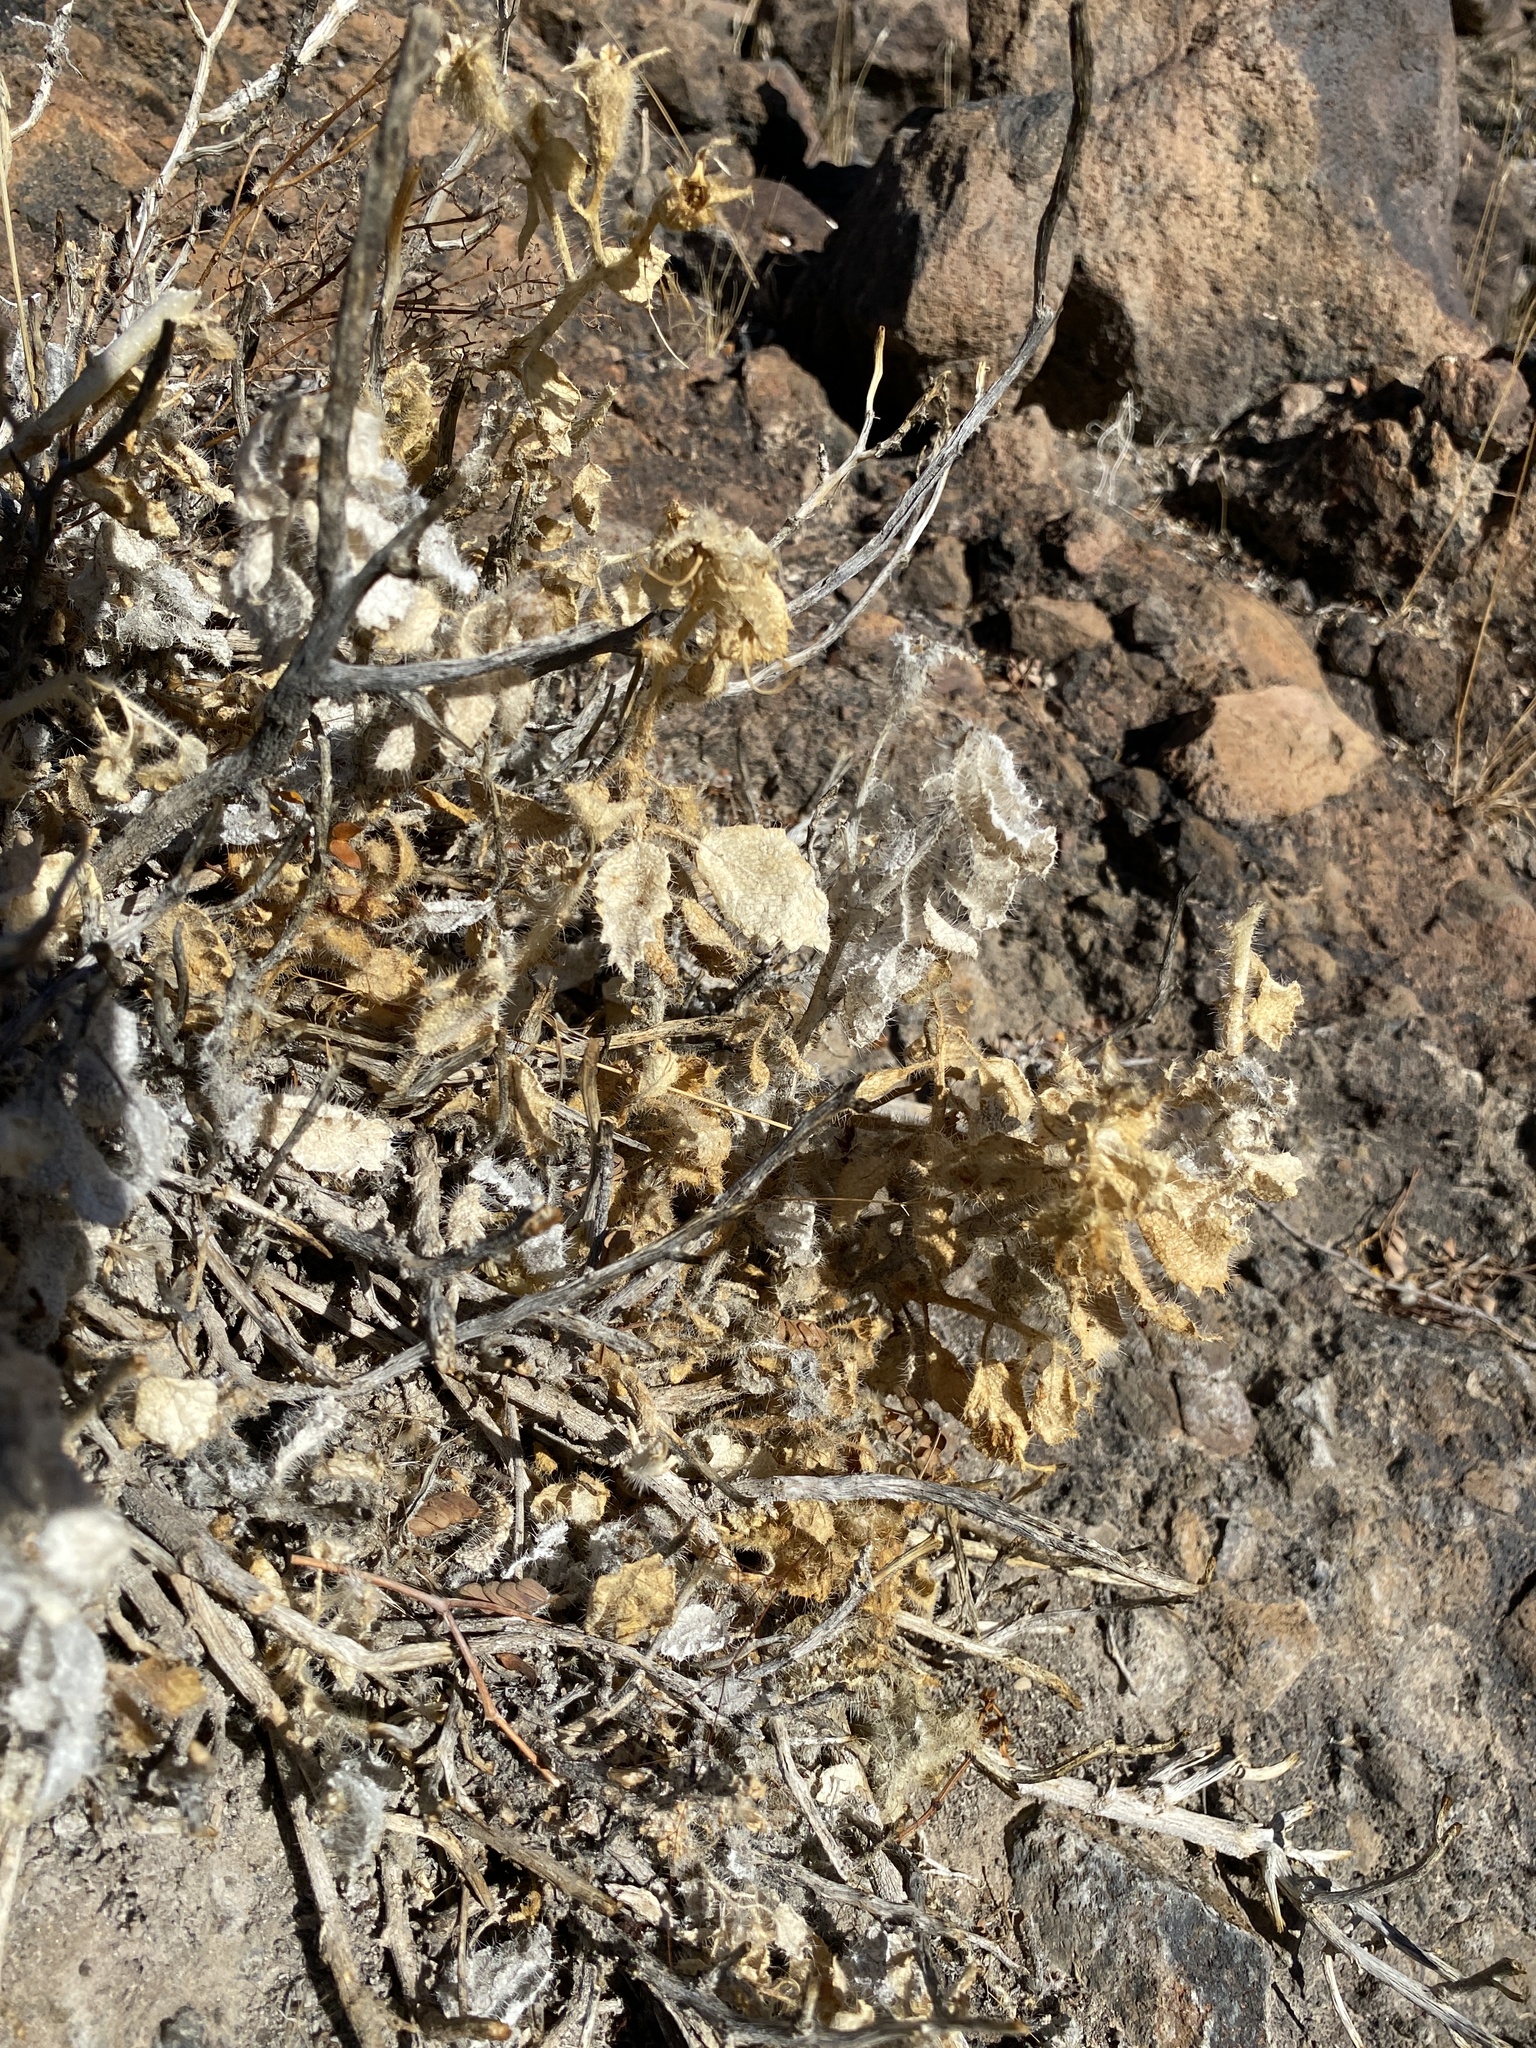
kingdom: Plantae
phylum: Tracheophyta
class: Magnoliopsida
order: Cornales
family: Loasaceae
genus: Eucnide
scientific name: Eucnide urens
